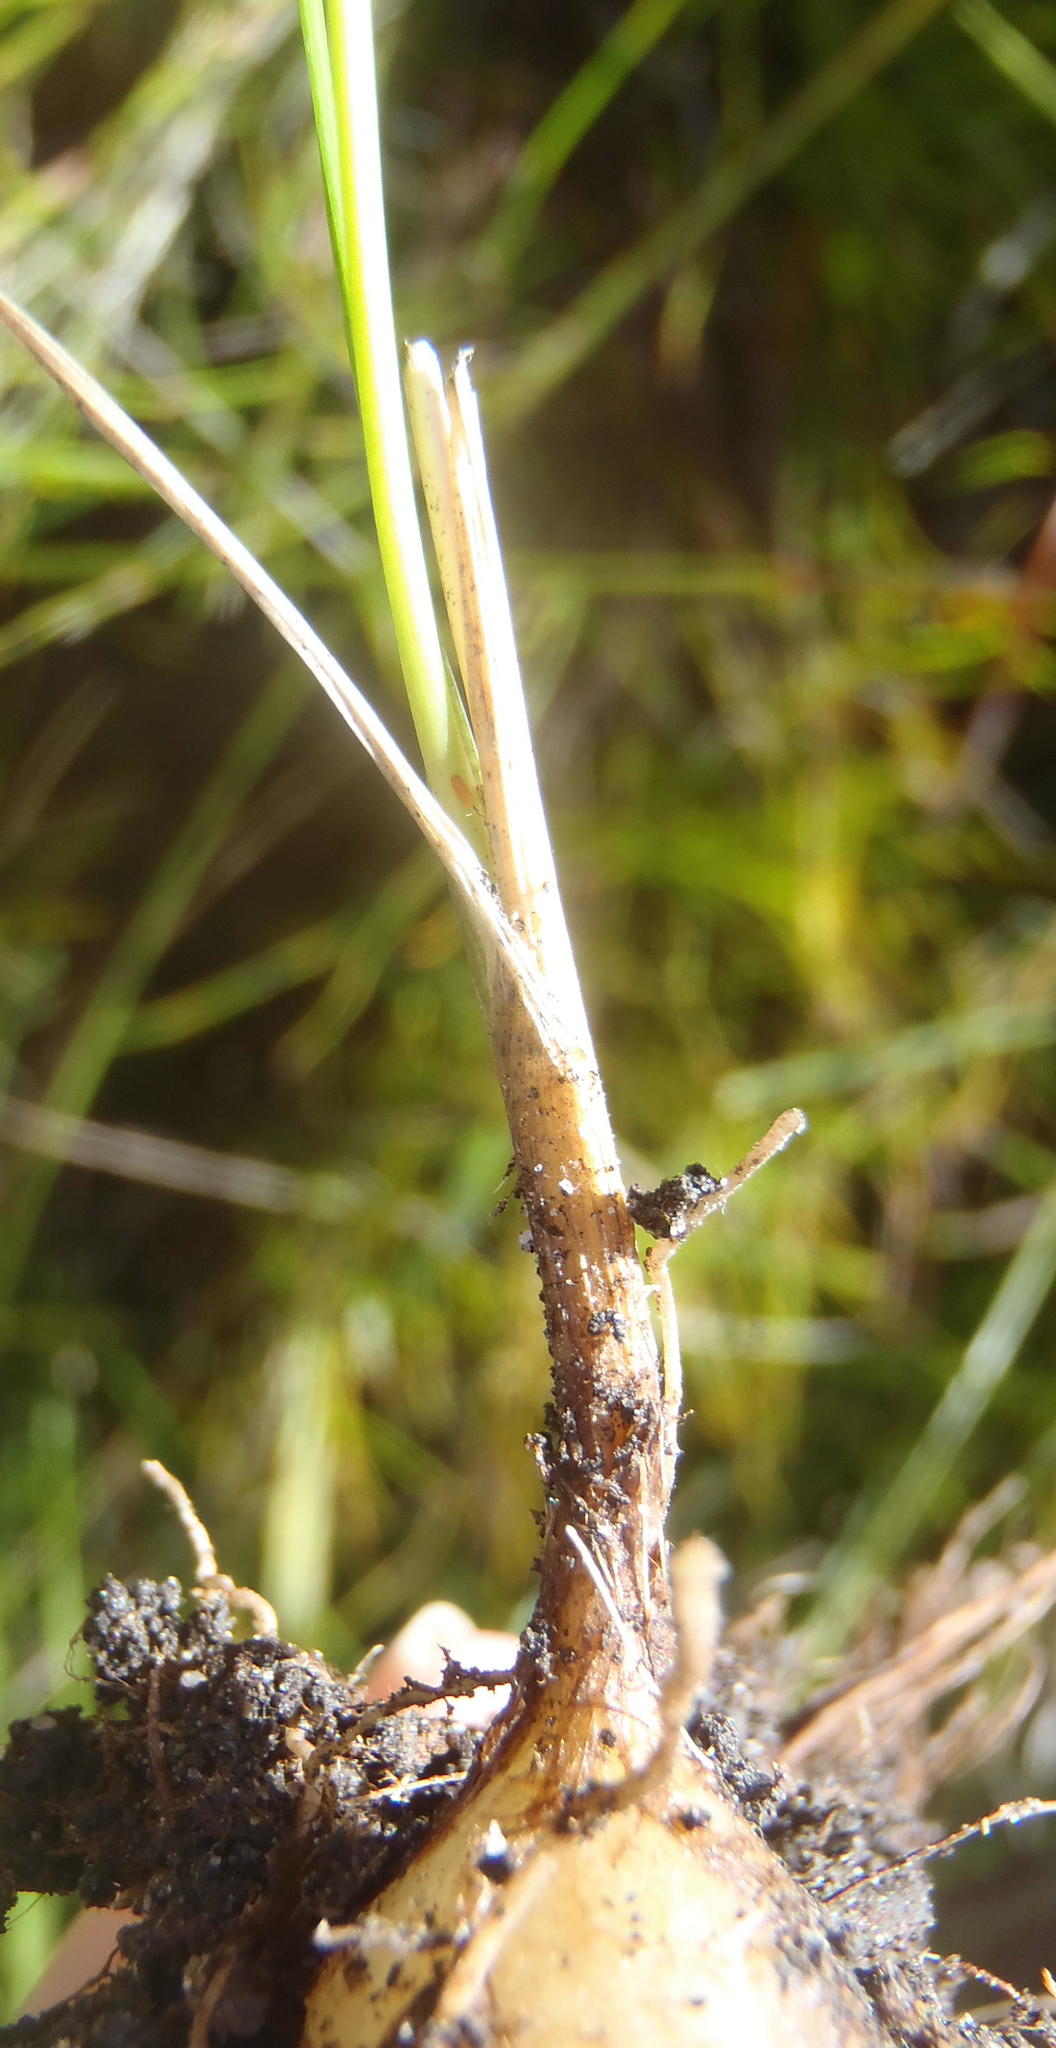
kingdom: Plantae
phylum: Tracheophyta
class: Liliopsida
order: Asparagales
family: Asparagaceae
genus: Ornithogalum
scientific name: Ornithogalum graminifolium
